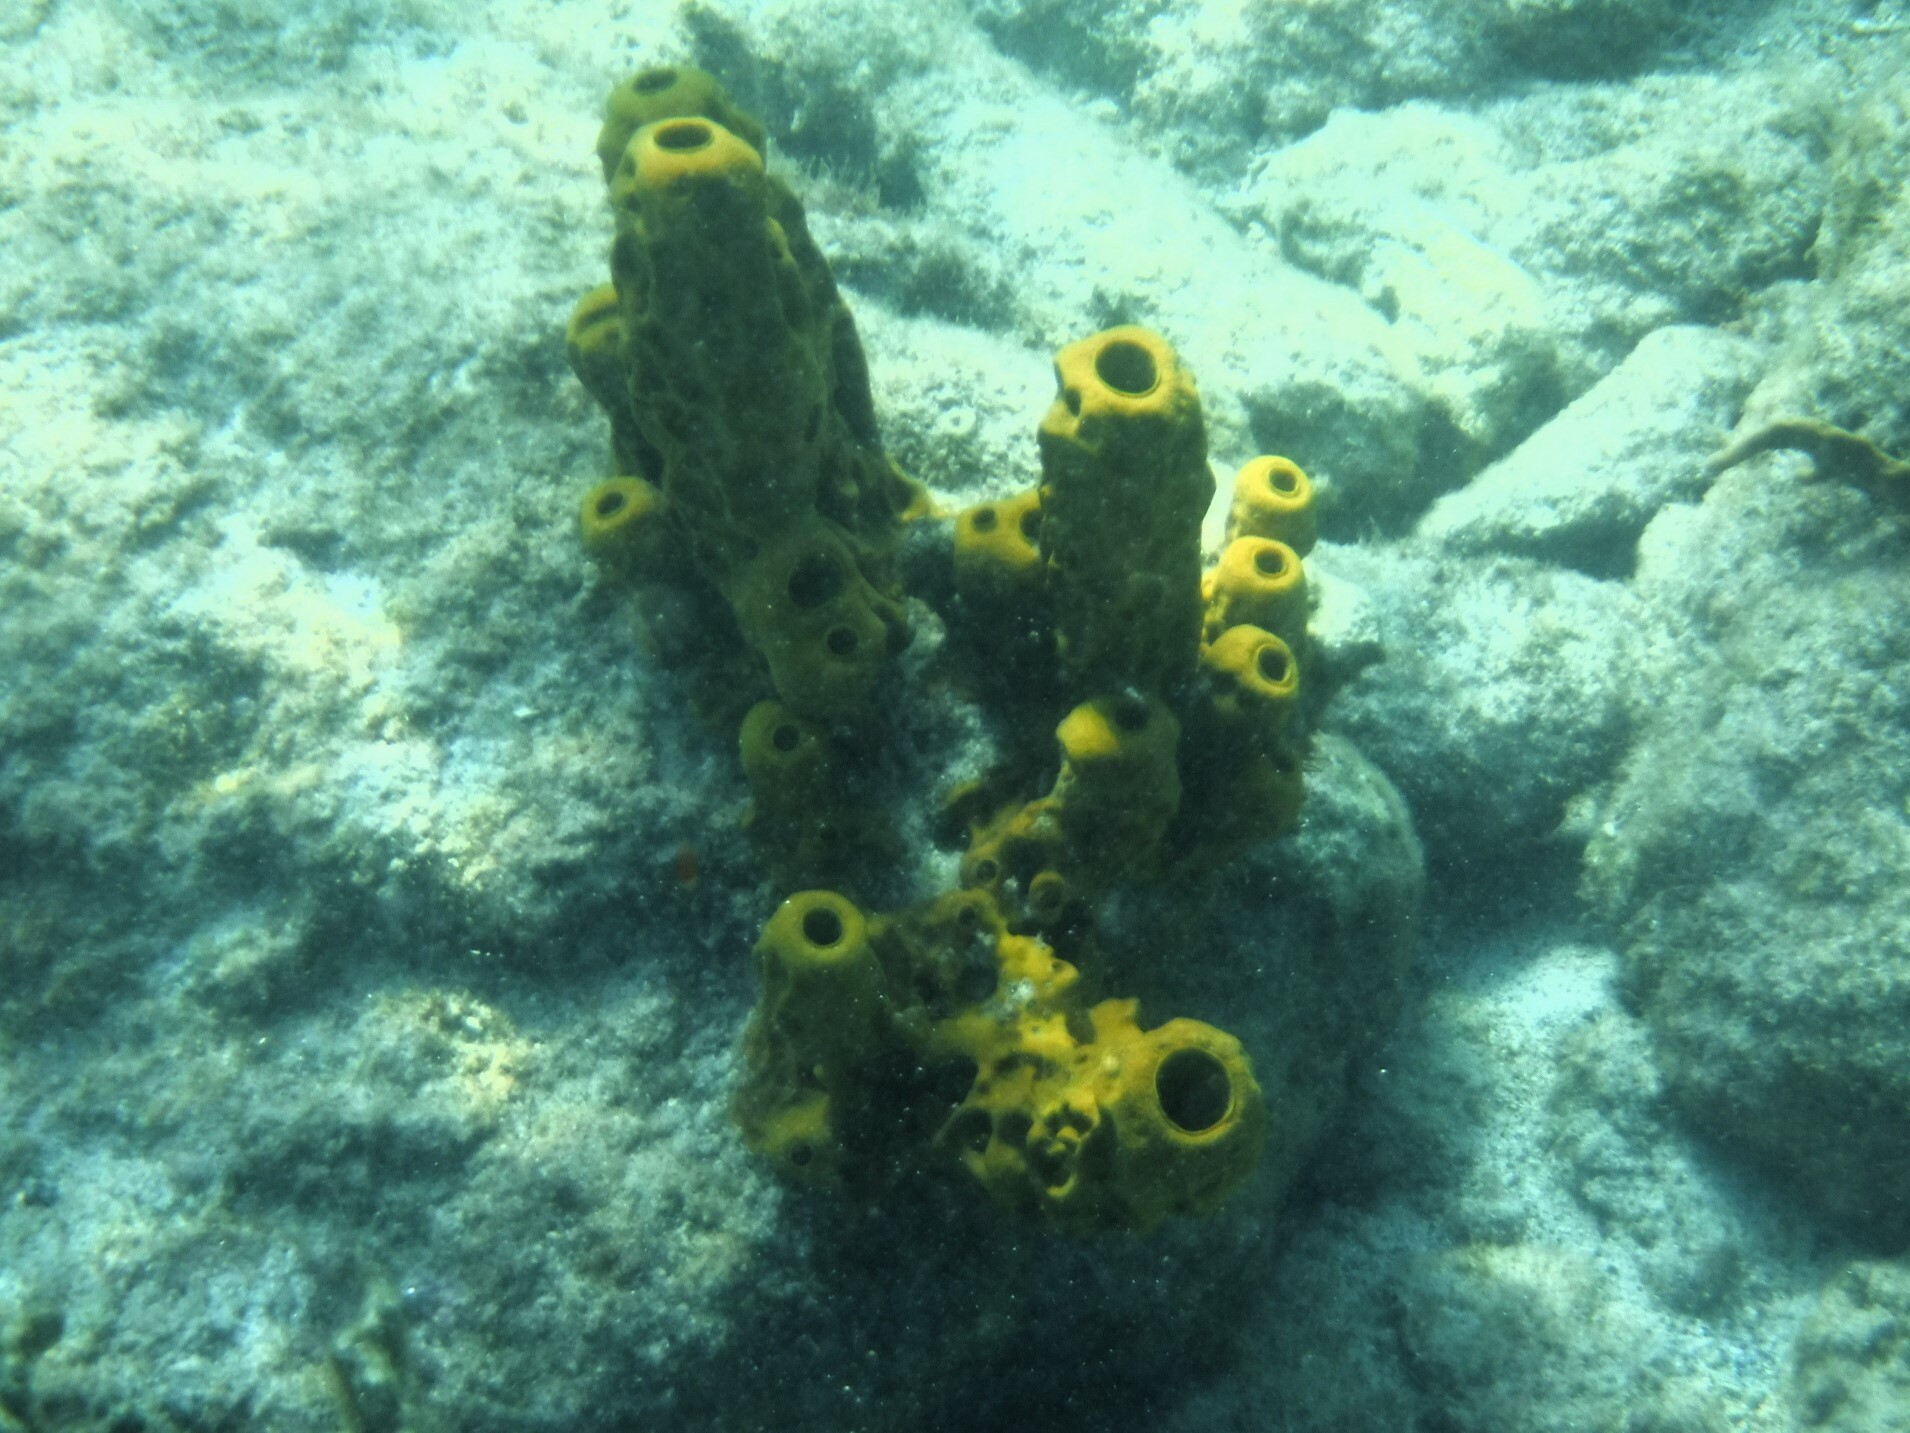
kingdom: Animalia
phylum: Porifera
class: Demospongiae
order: Verongiida
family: Aplysinidae
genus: Aplysina
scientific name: Aplysina fistularis
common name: Candle sponge
